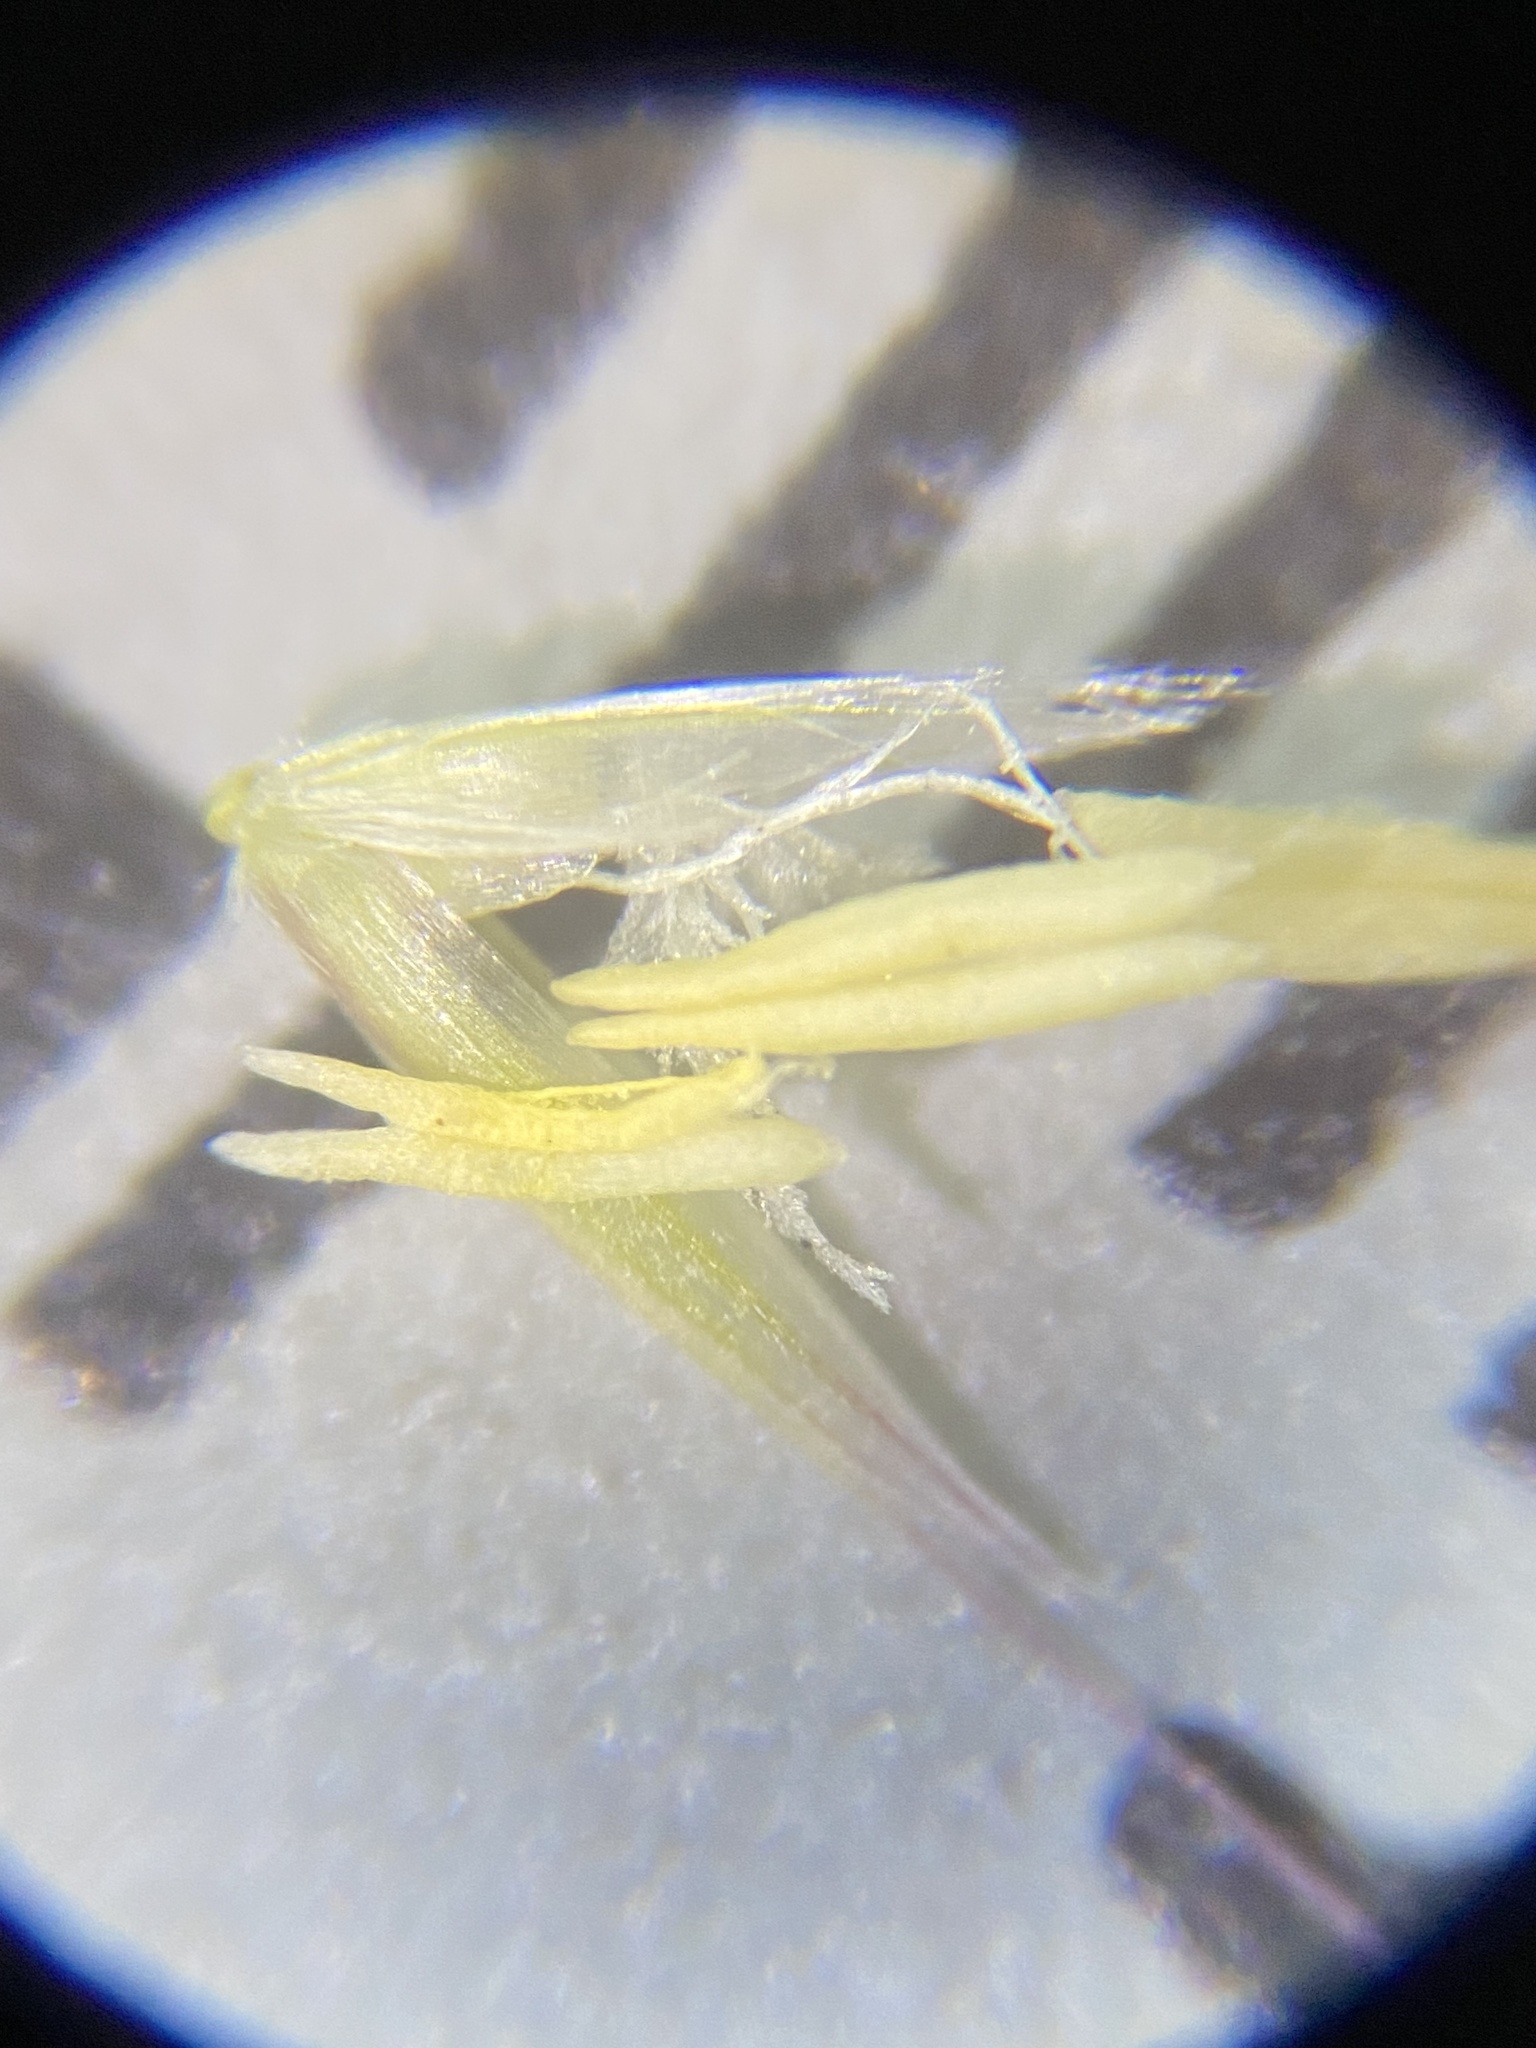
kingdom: Plantae
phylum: Tracheophyta
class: Liliopsida
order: Poales
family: Poaceae
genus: Calamagrostis
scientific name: Calamagrostis utsutsuensis
